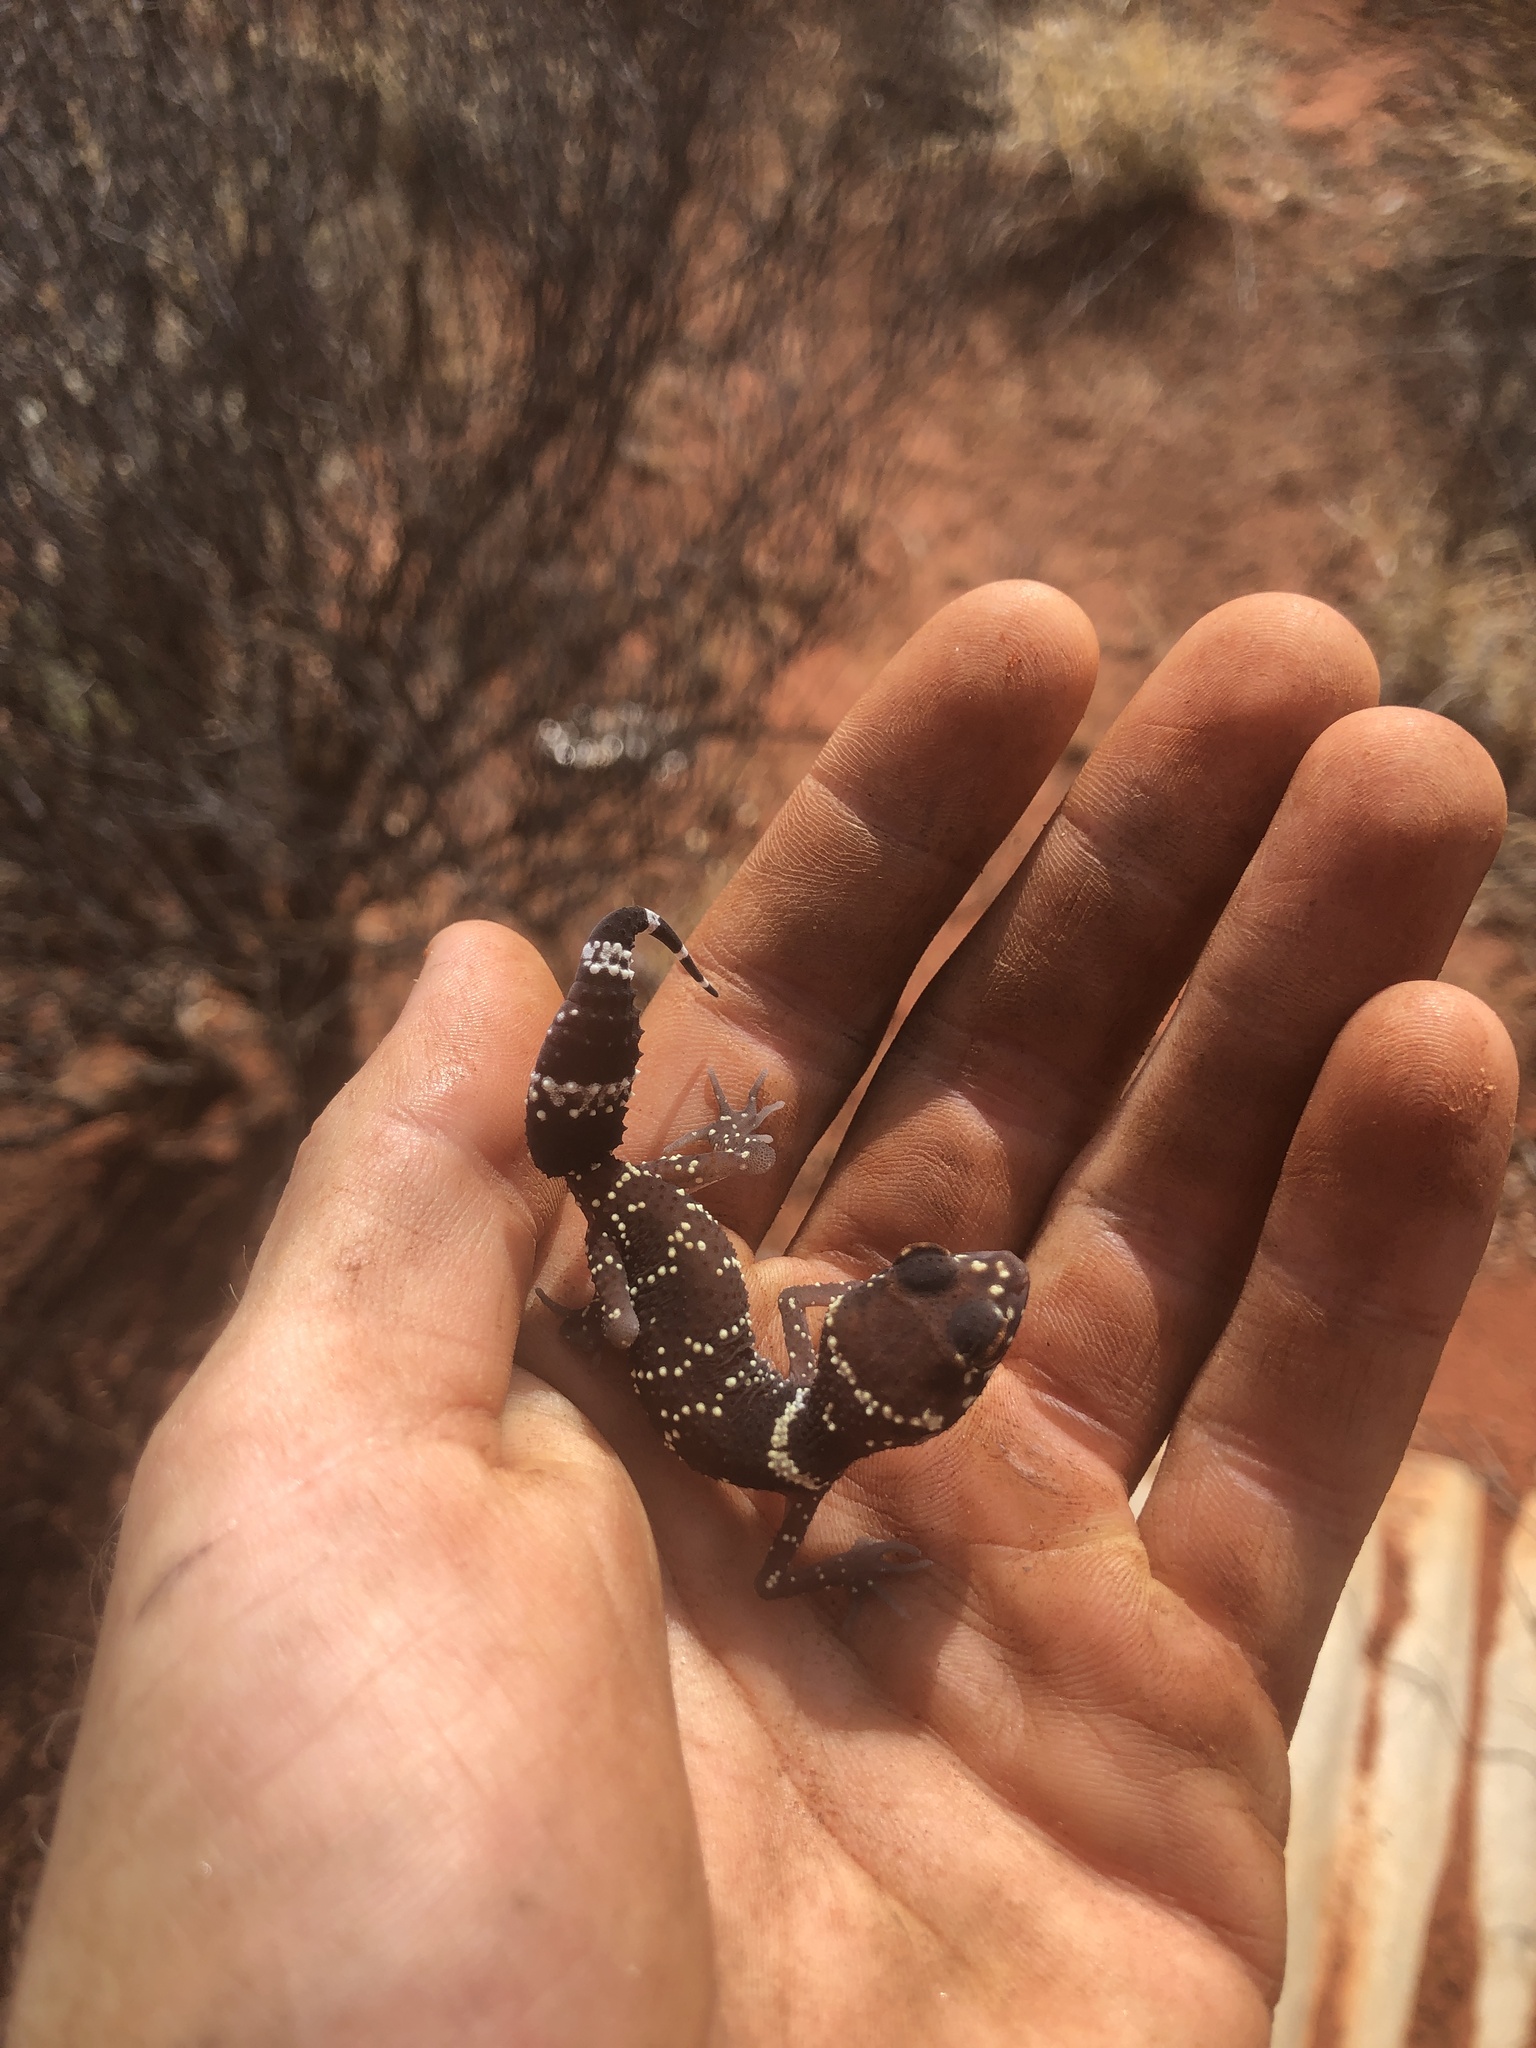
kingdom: Animalia
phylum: Chordata
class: Squamata
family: Carphodactylidae
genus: Underwoodisaurus
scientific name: Underwoodisaurus milii
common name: Barking gecko
